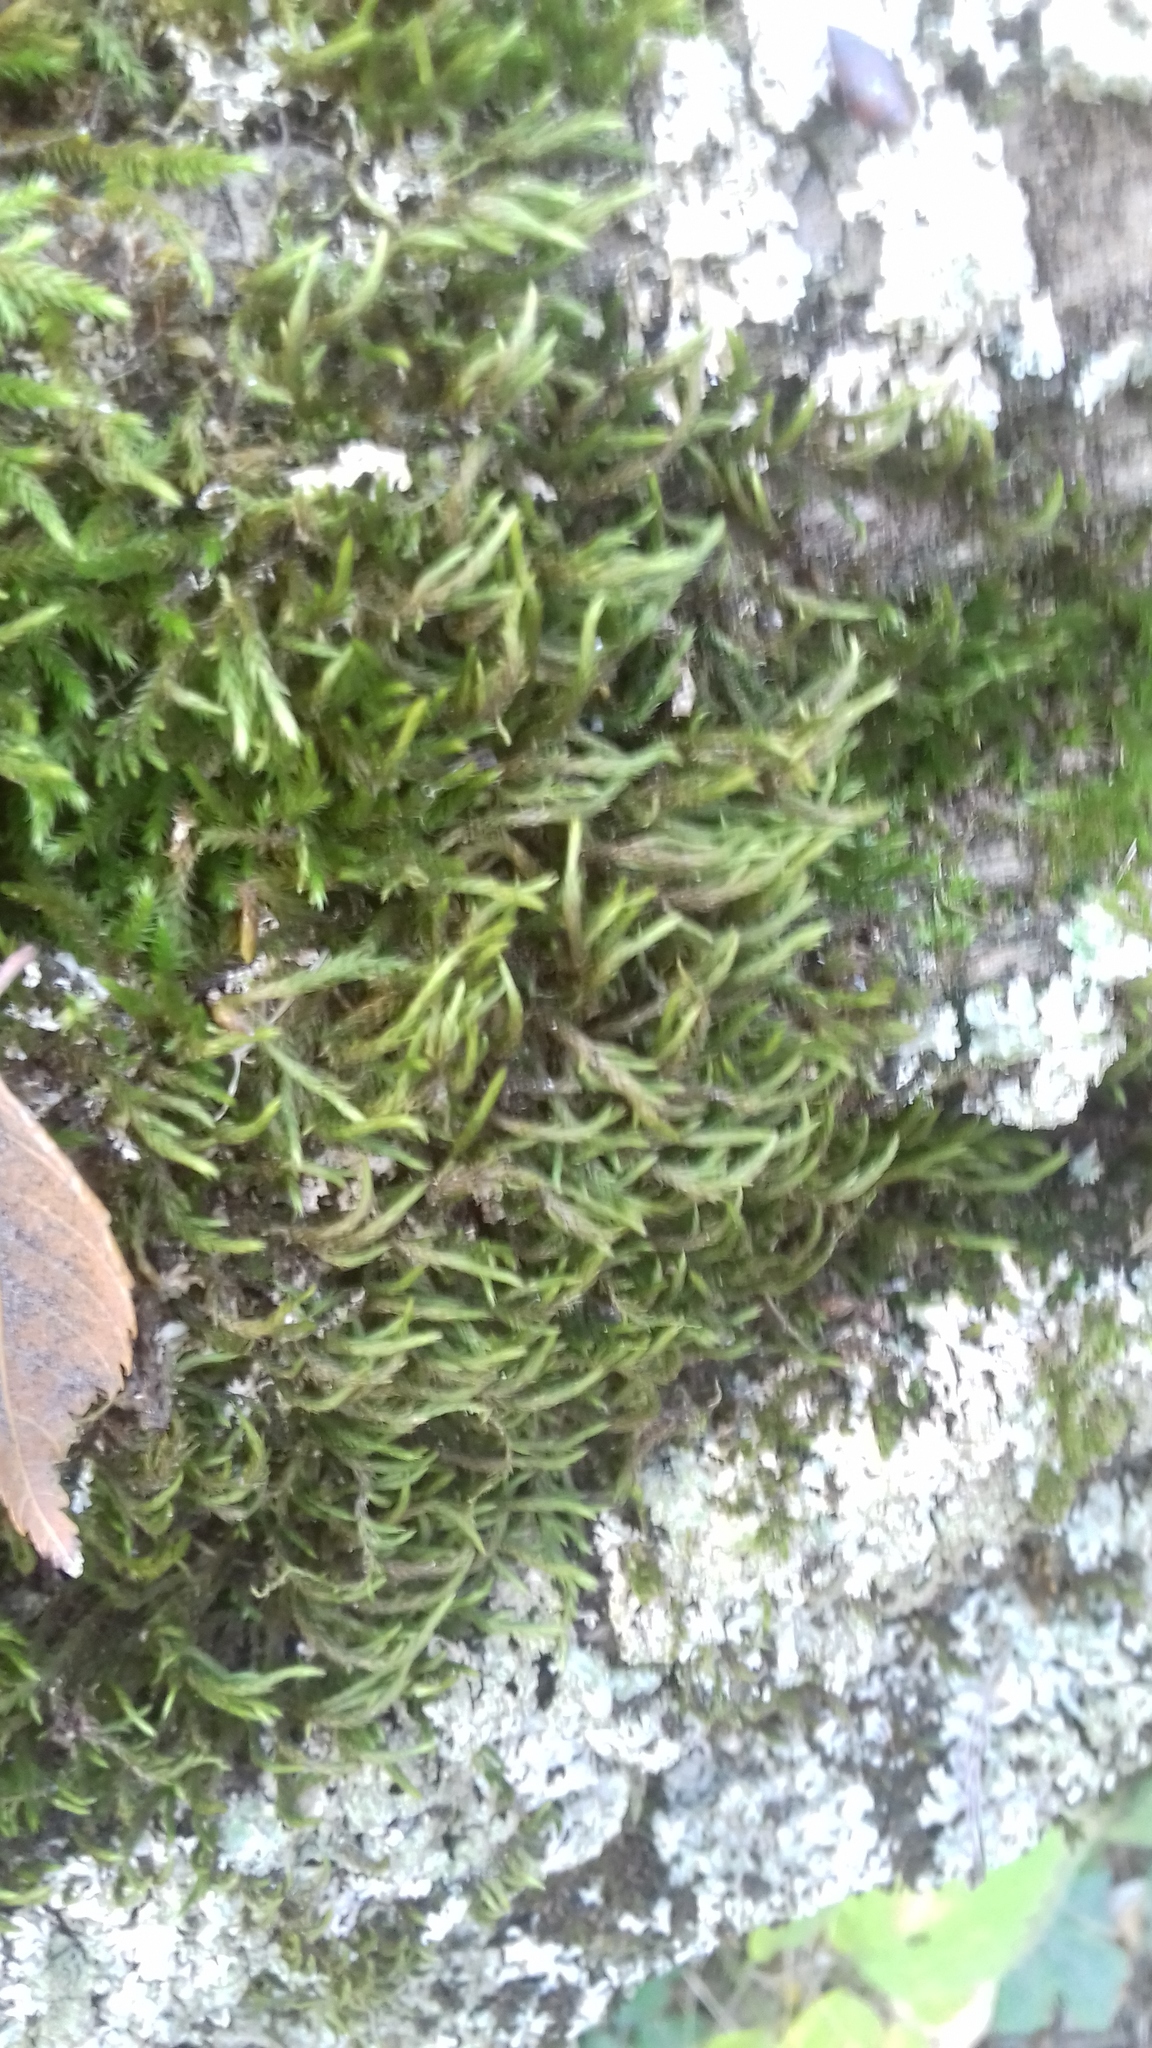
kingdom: Plantae
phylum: Bryophyta
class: Bryopsida
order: Hypnales
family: Leucodontaceae
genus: Leucodon
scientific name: Leucodon sciuroides
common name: Squirrel-tail moss
